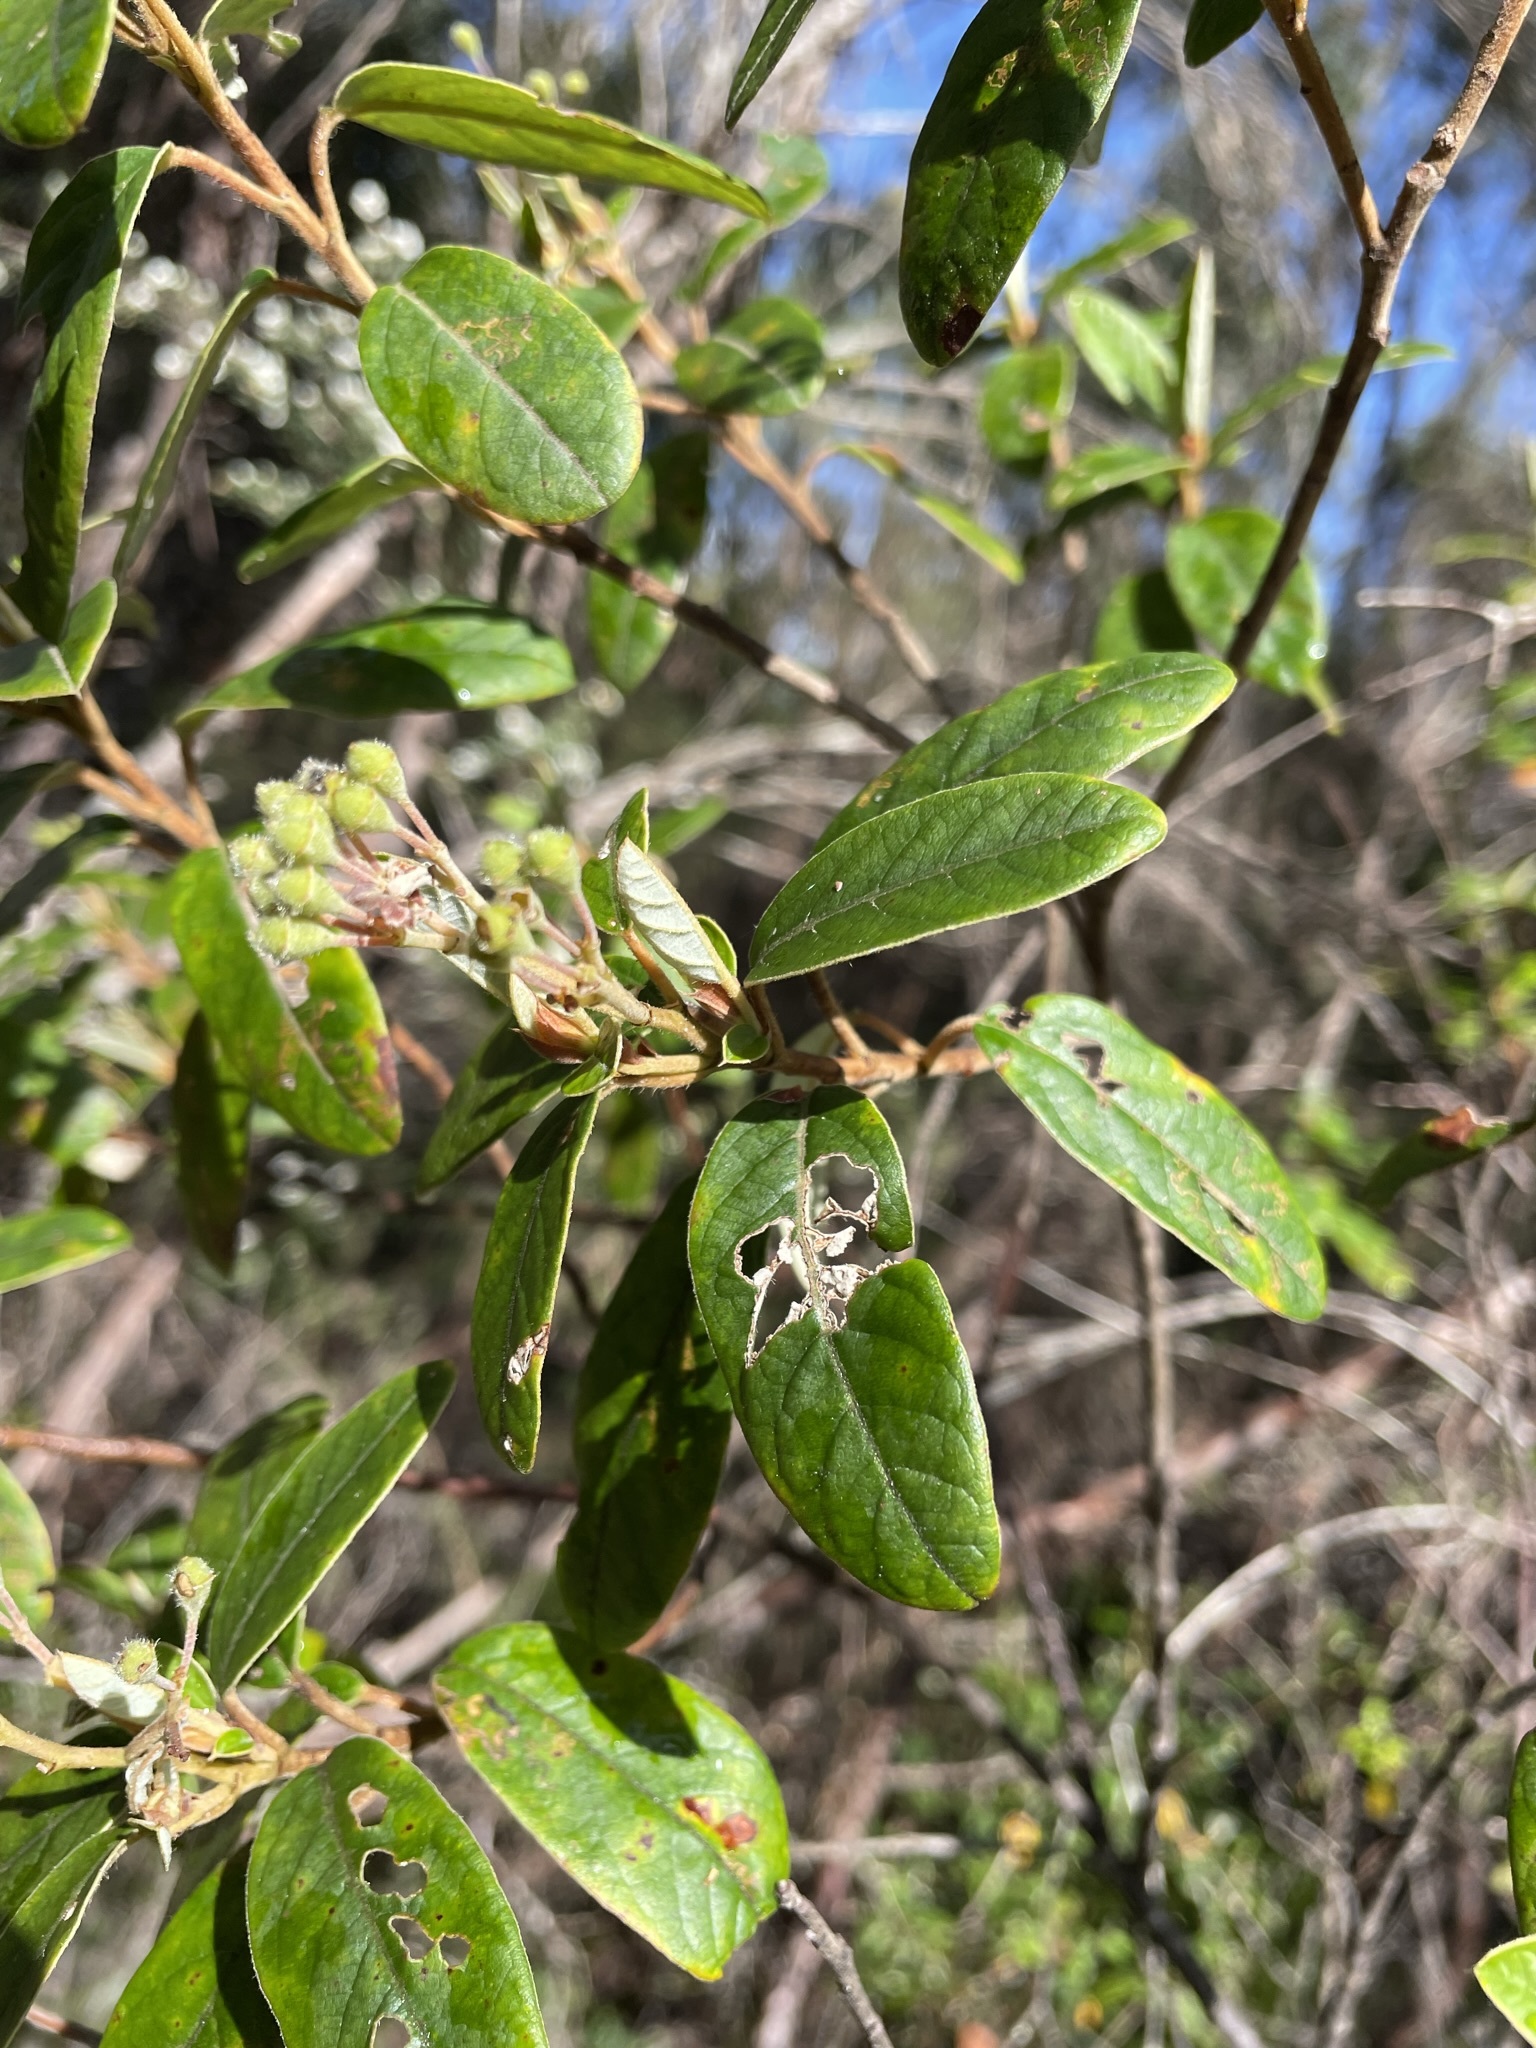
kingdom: Plantae
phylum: Tracheophyta
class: Magnoliopsida
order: Rosales
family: Rhamnaceae
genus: Pomaderris
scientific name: Pomaderris pilifera
